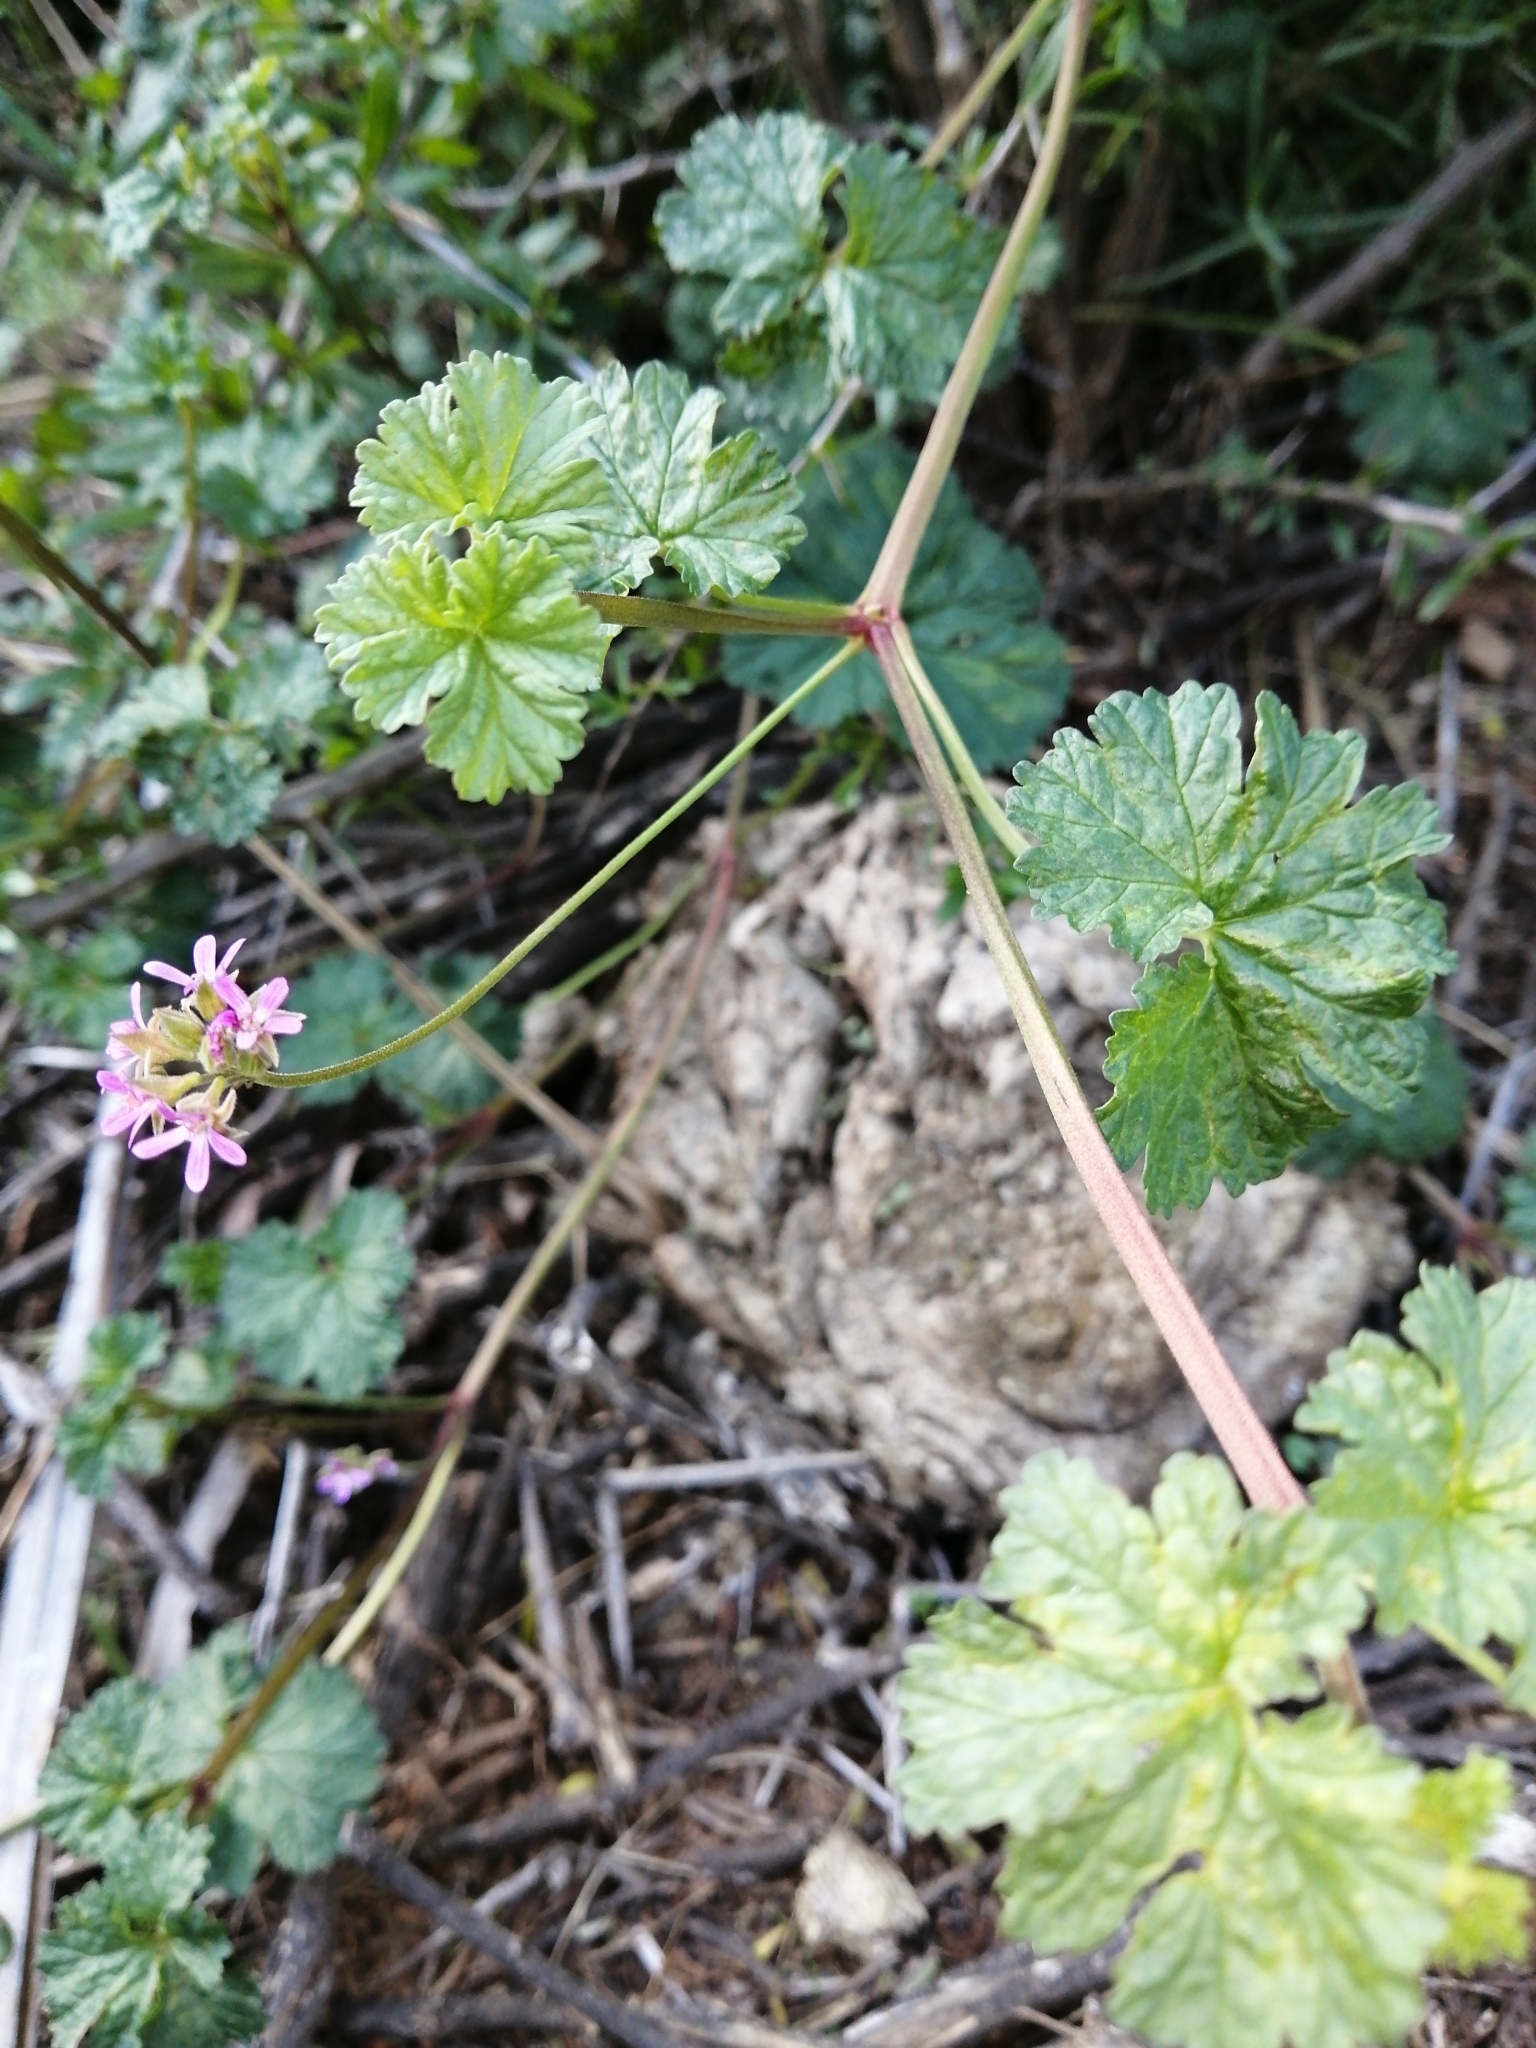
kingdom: Plantae
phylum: Tracheophyta
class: Magnoliopsida
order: Geraniales
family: Geraniaceae
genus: Pelargonium
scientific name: Pelargonium grossularioides
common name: Gooseberry geranium
